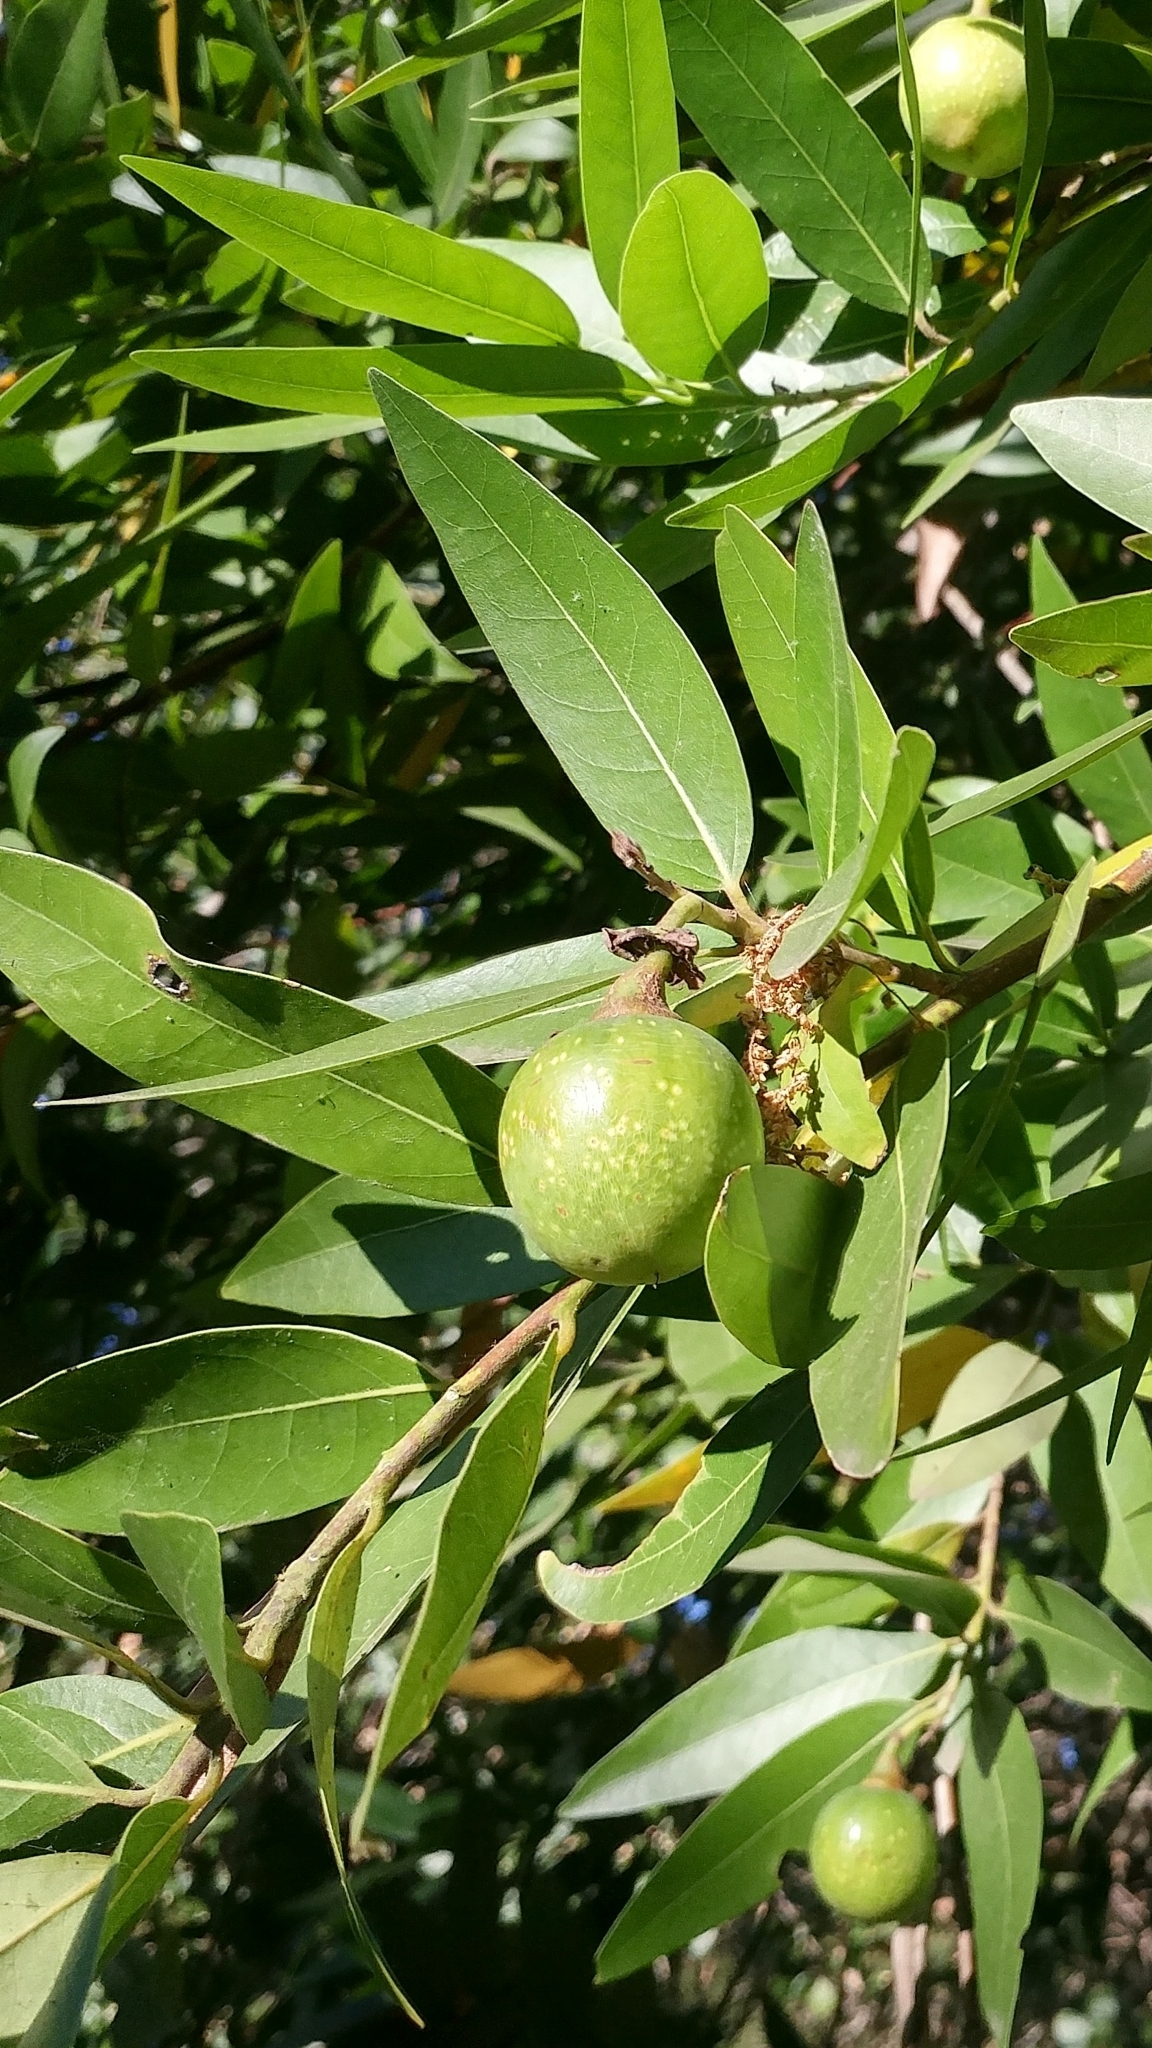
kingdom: Plantae
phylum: Tracheophyta
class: Magnoliopsida
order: Laurales
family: Lauraceae
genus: Umbellularia
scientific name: Umbellularia californica
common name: California bay
